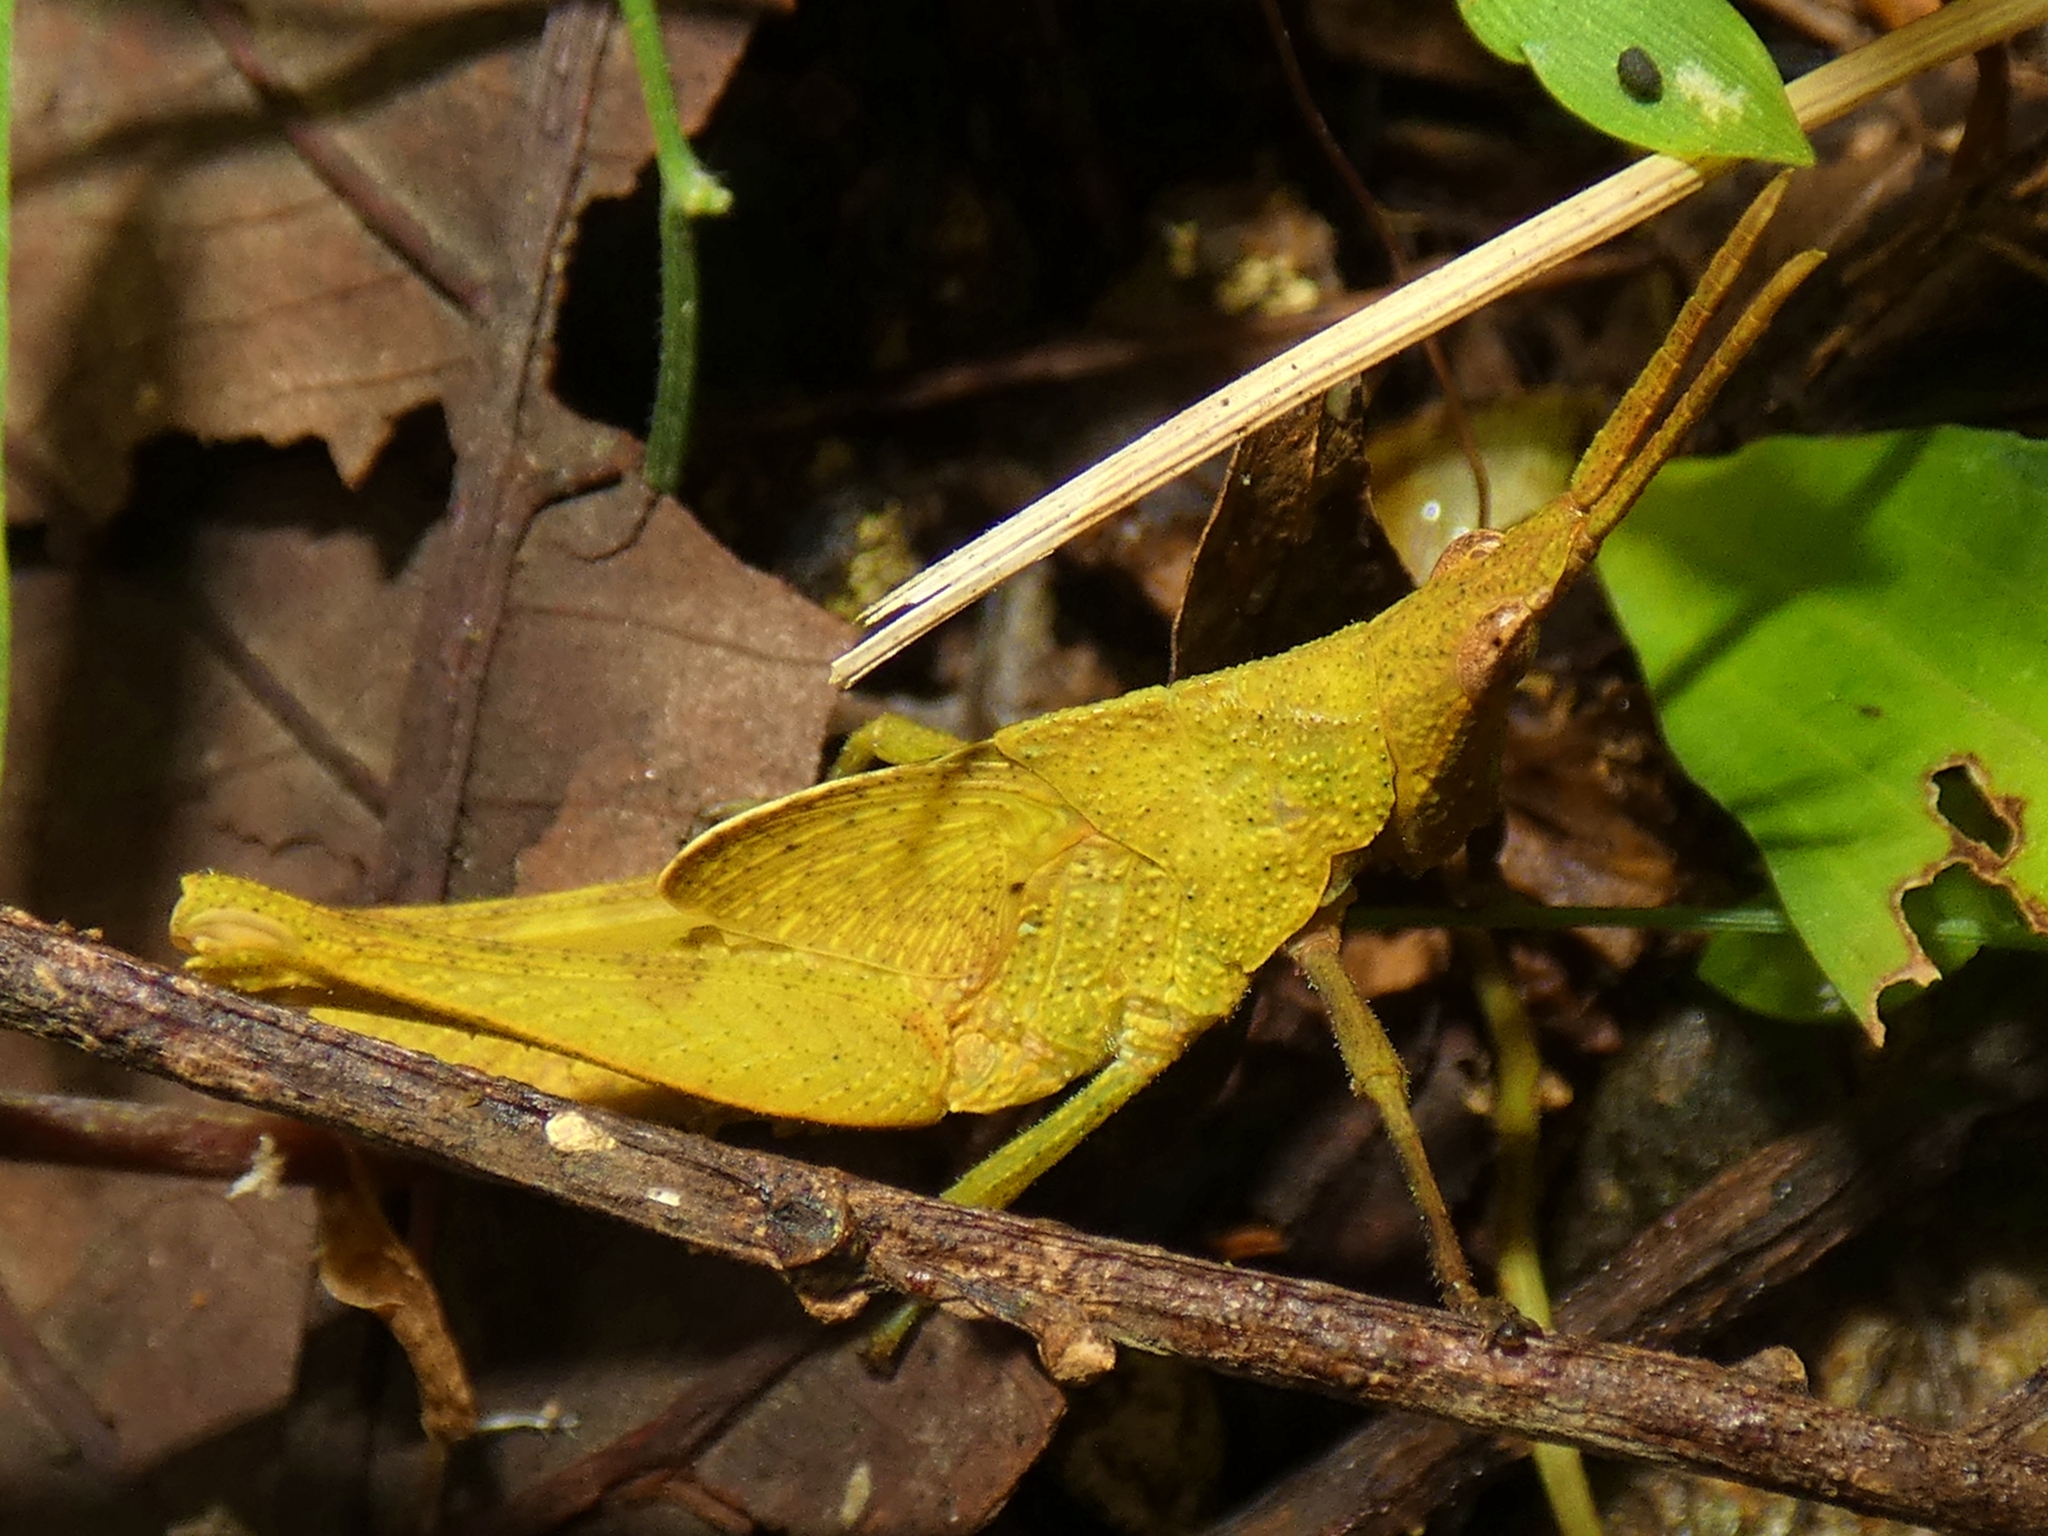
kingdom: Animalia
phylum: Arthropoda
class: Insecta
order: Orthoptera
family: Pyrgomorphidae
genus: Desmoptera
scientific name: Desmoptera truncatipennis
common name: Large forest pyrgomorph
